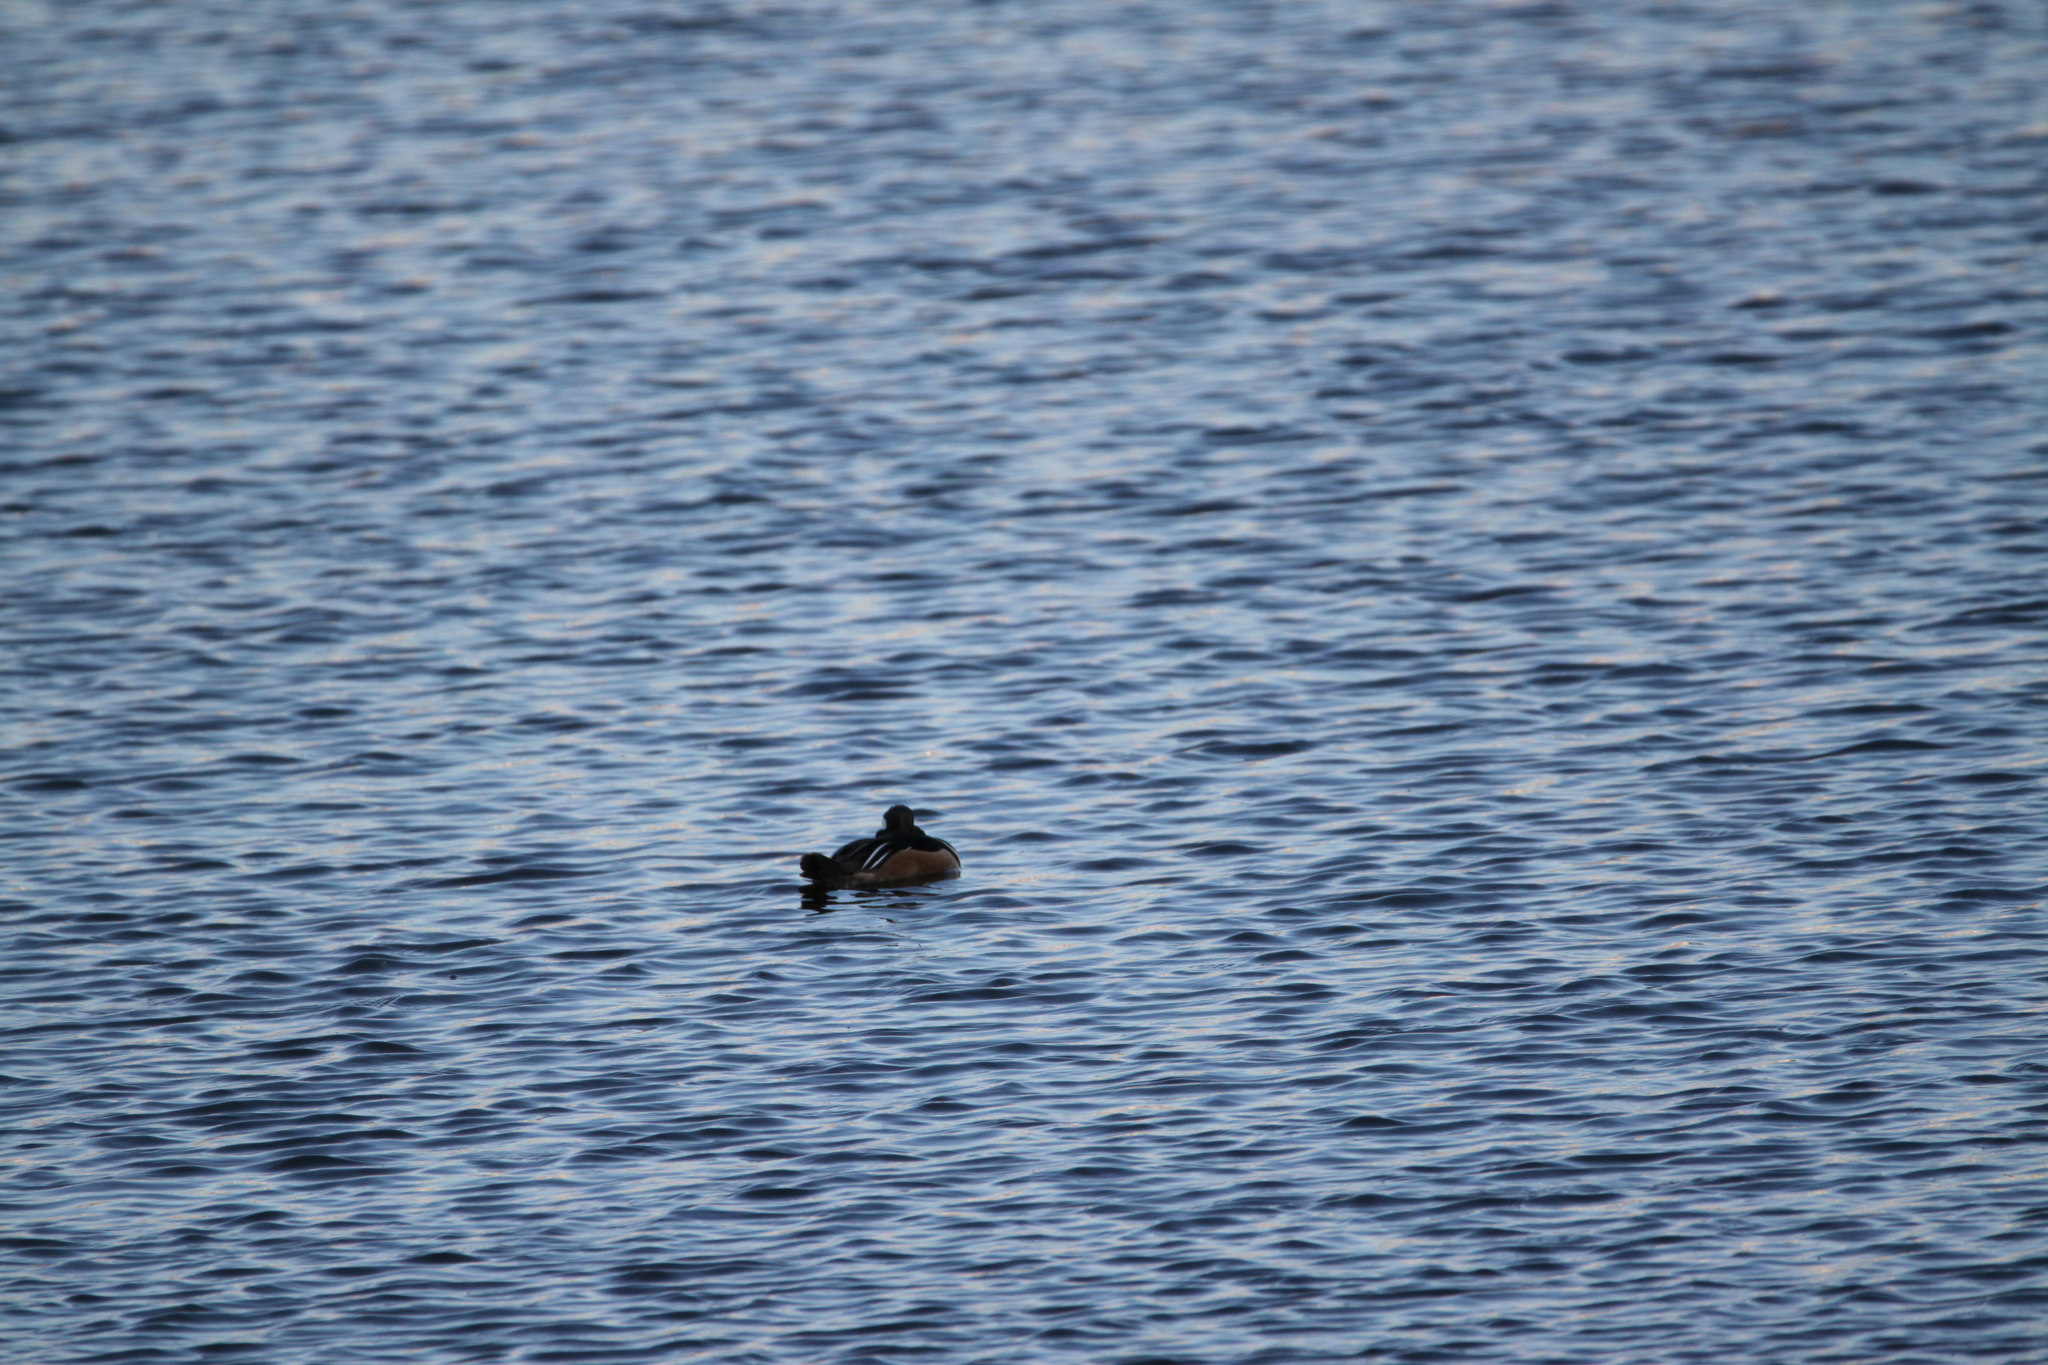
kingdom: Animalia
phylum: Chordata
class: Aves
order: Anseriformes
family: Anatidae
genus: Lophodytes
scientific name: Lophodytes cucullatus
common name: Hooded merganser
